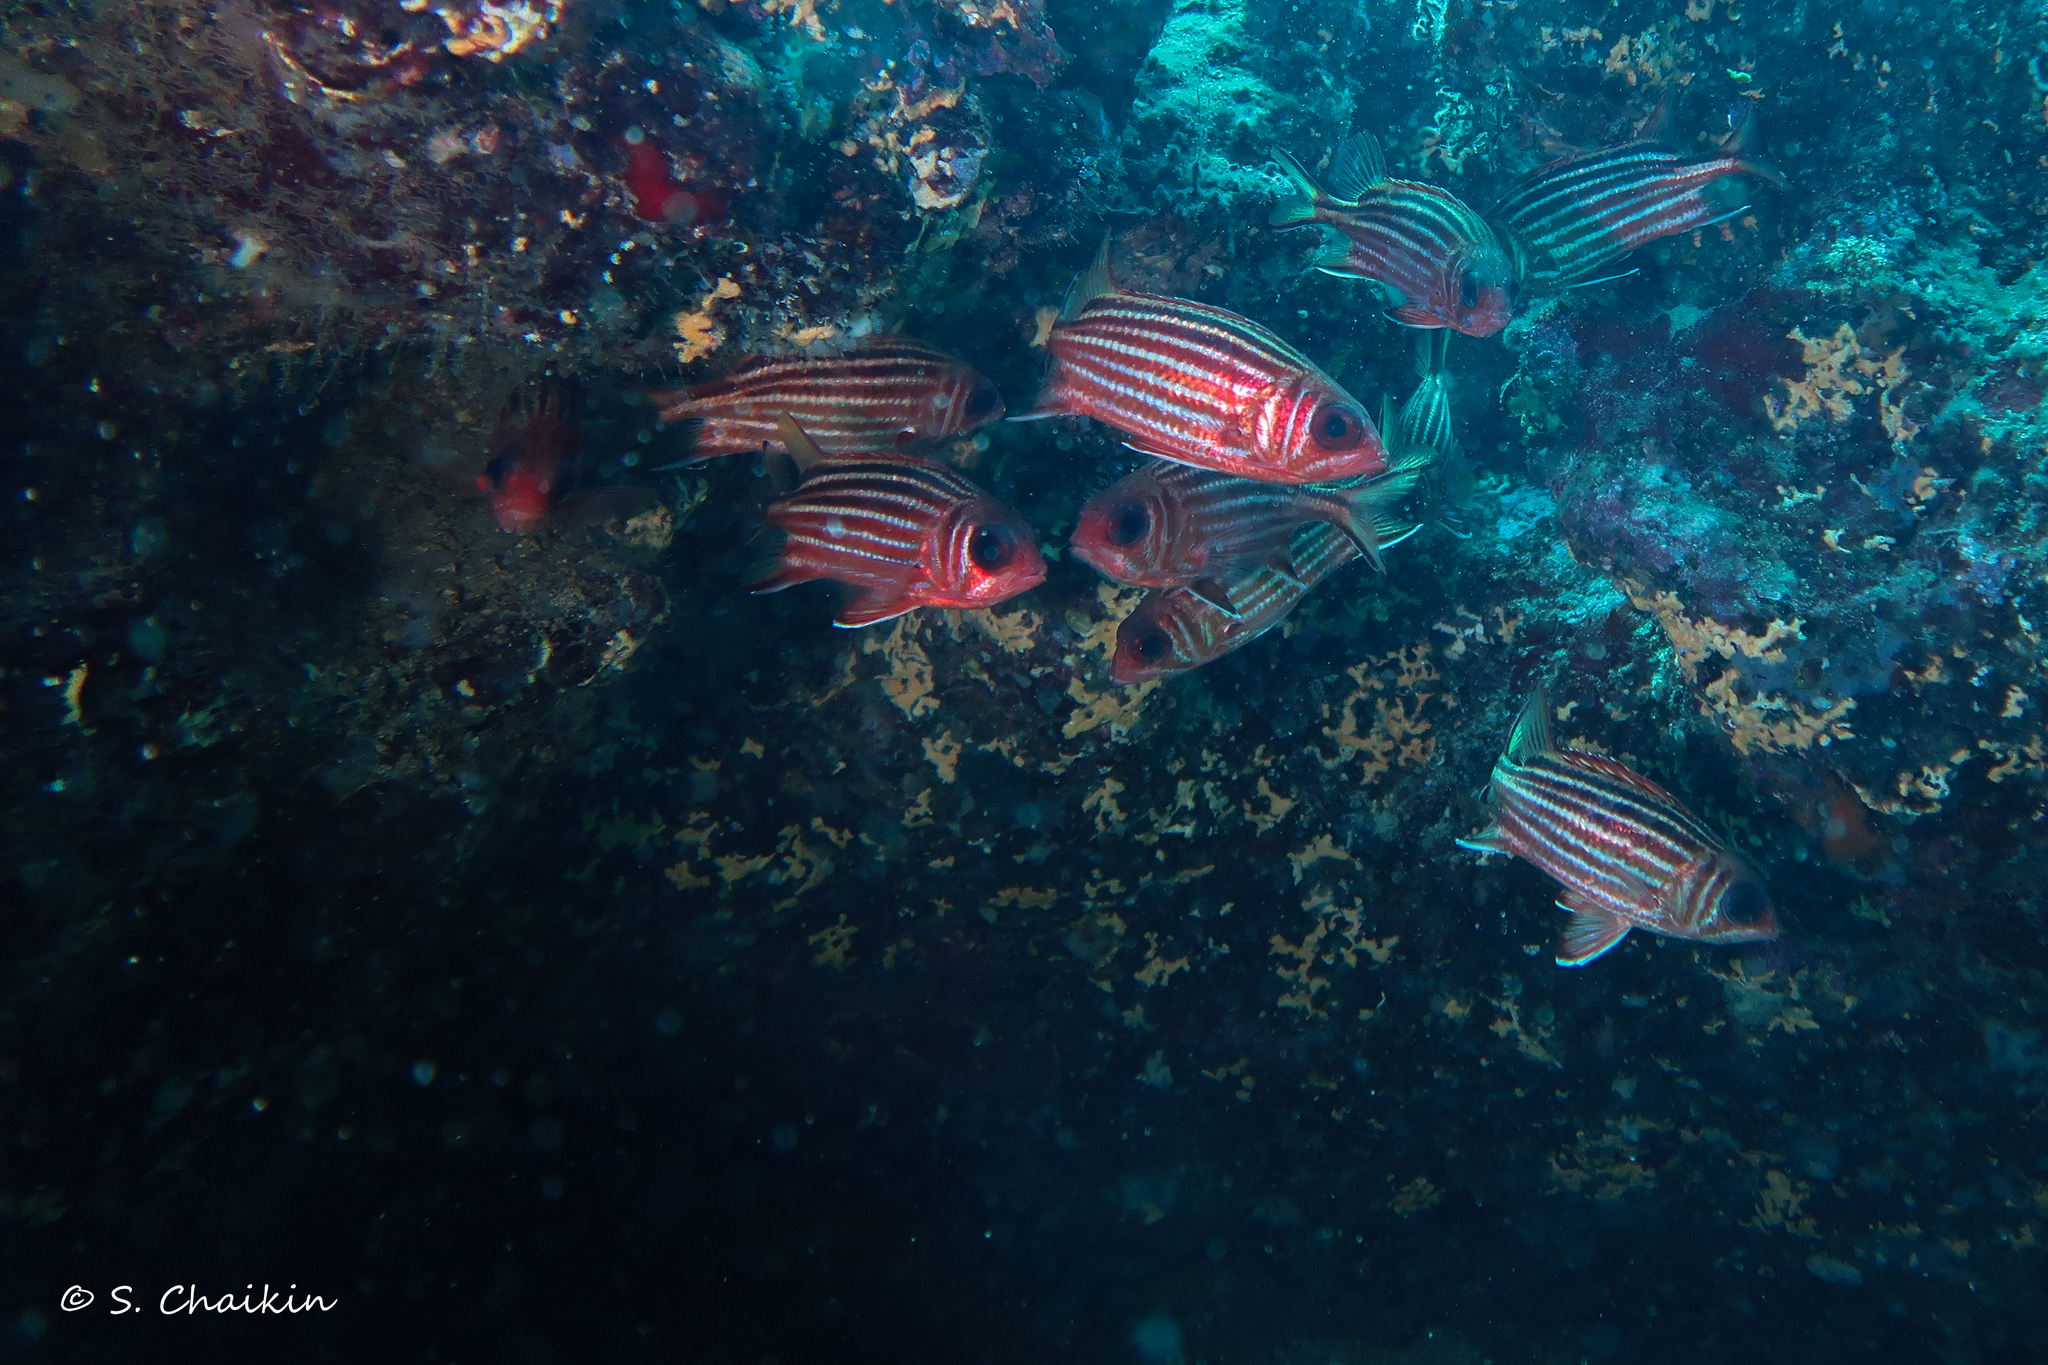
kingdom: Animalia
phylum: Chordata
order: Beryciformes
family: Holocentridae
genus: Sargocentron
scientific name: Sargocentron rubrum
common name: Redcoat
